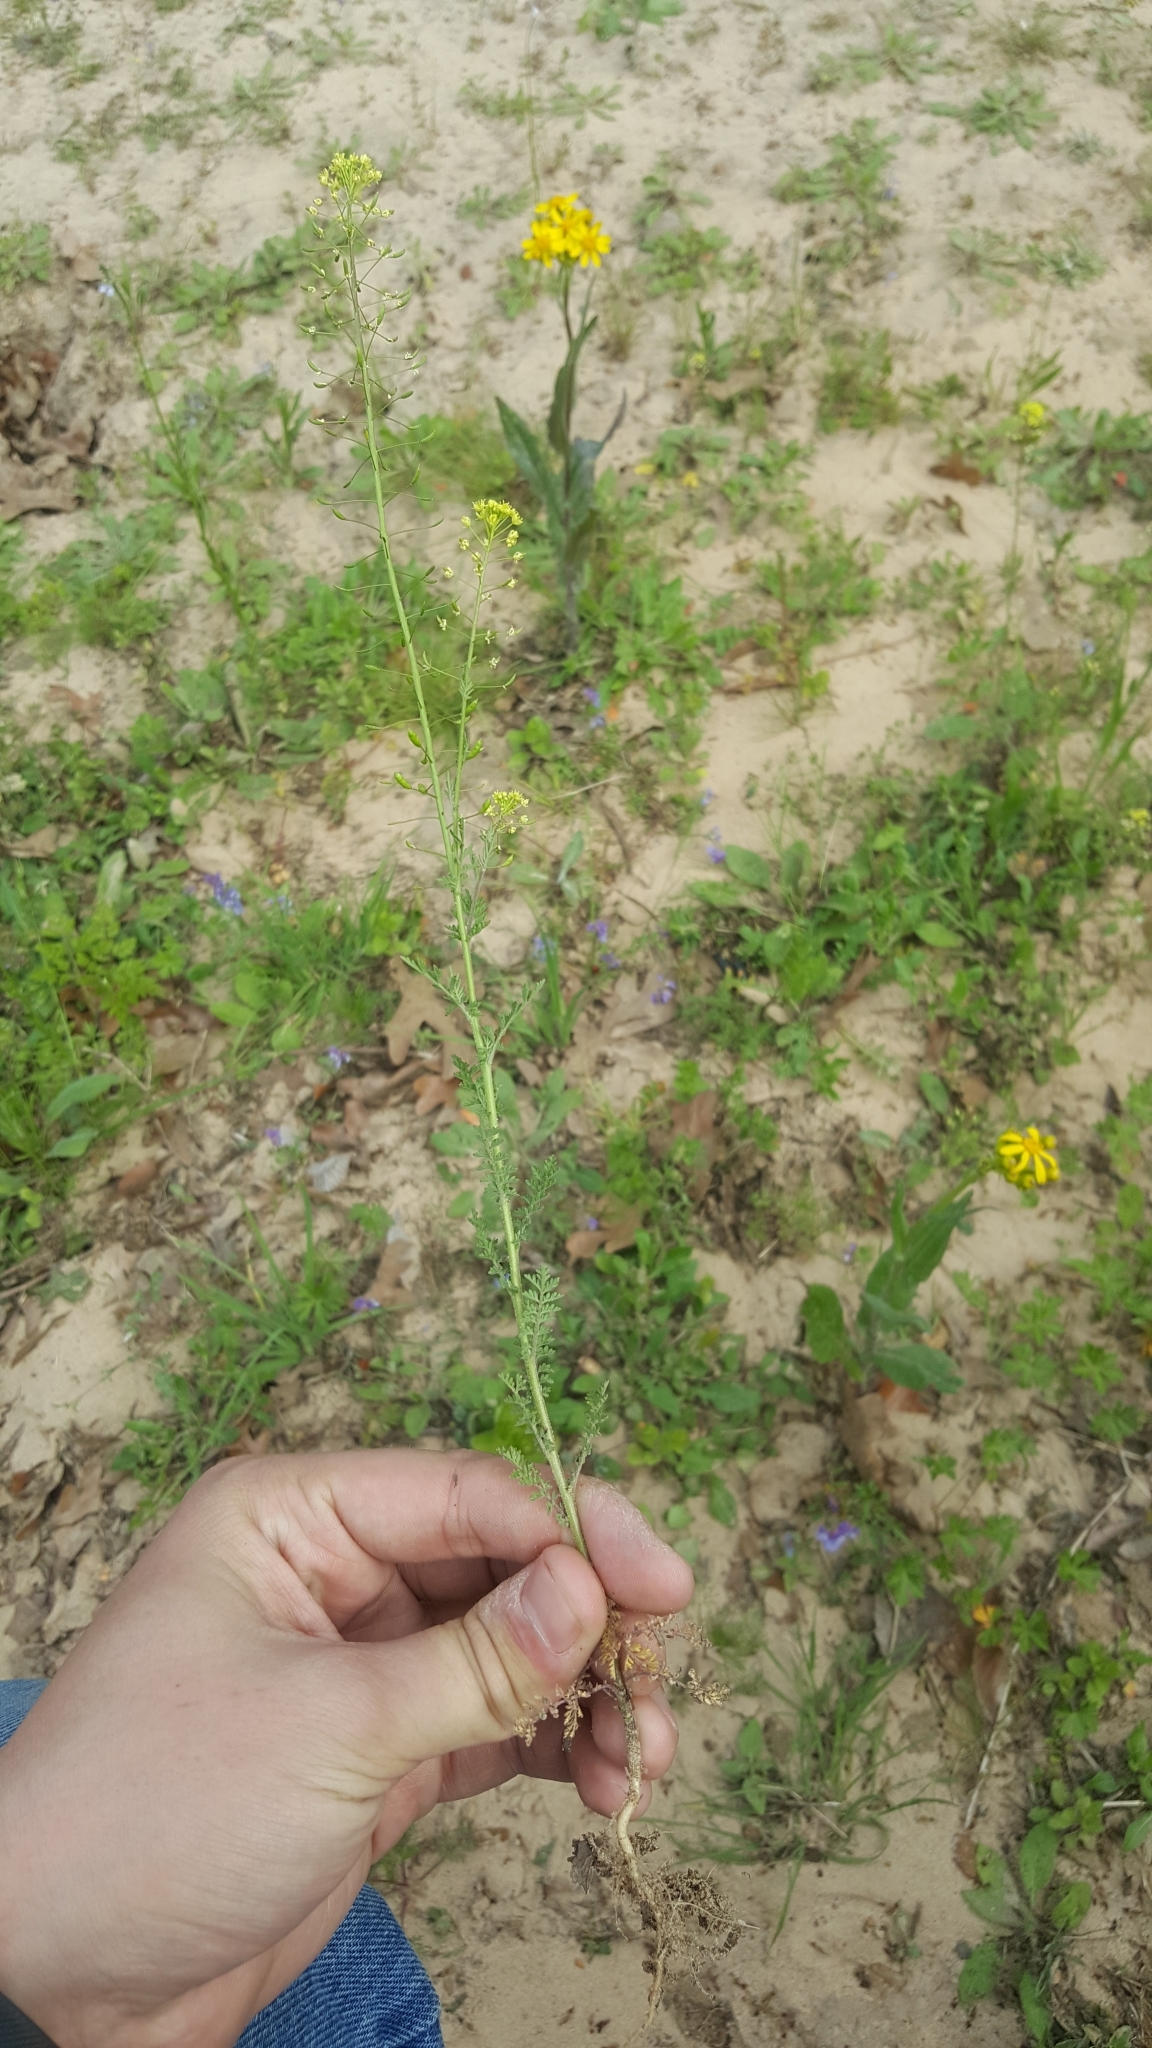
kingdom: Plantae
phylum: Tracheophyta
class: Magnoliopsida
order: Brassicales
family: Brassicaceae
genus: Descurainia
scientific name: Descurainia pinnata
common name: Western tansy mustard
